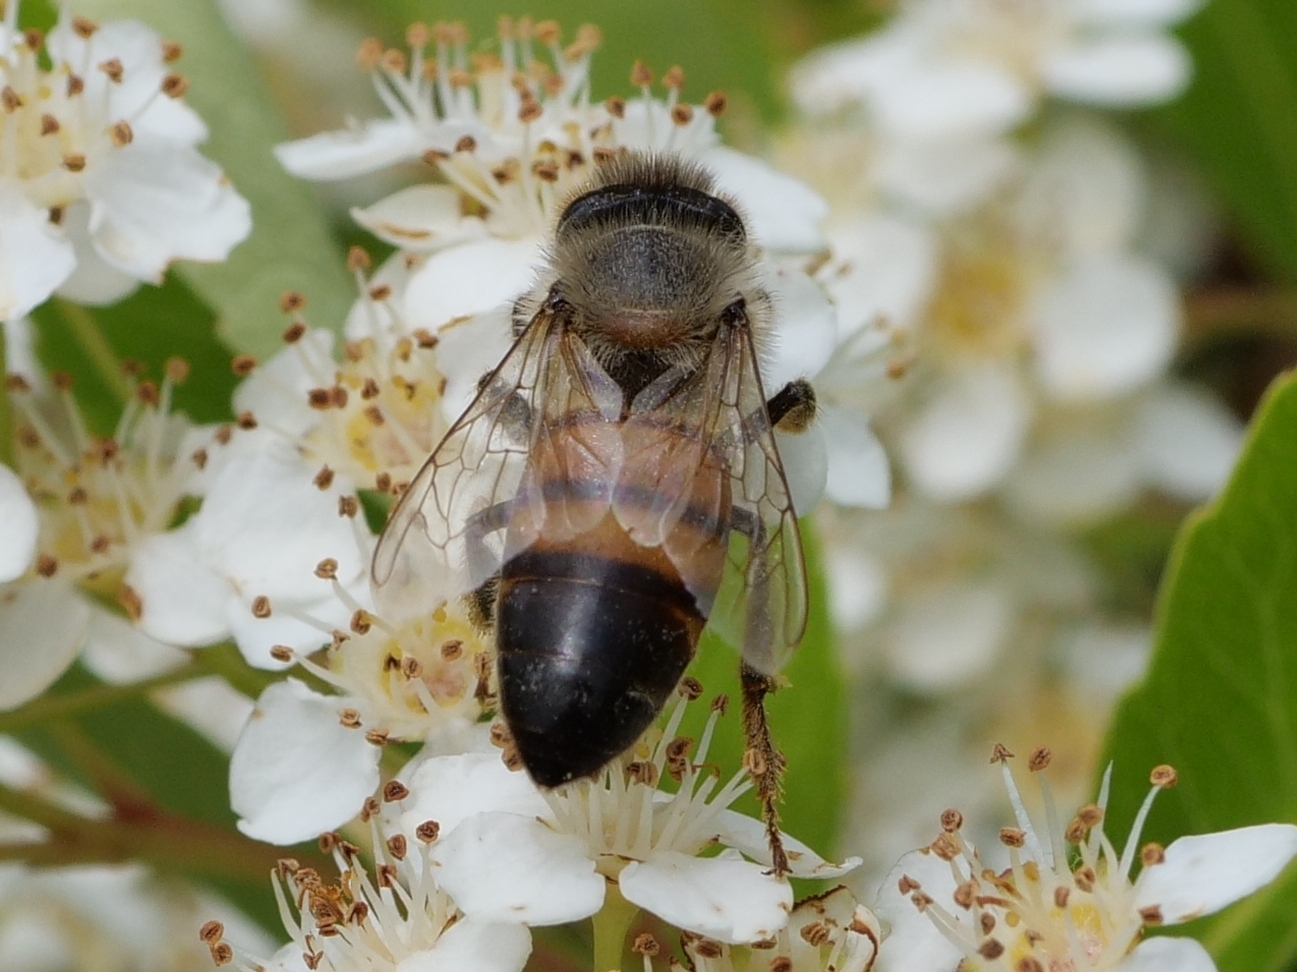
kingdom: Animalia
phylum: Arthropoda
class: Insecta
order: Hymenoptera
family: Apidae
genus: Apis
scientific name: Apis mellifera
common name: Honey bee
